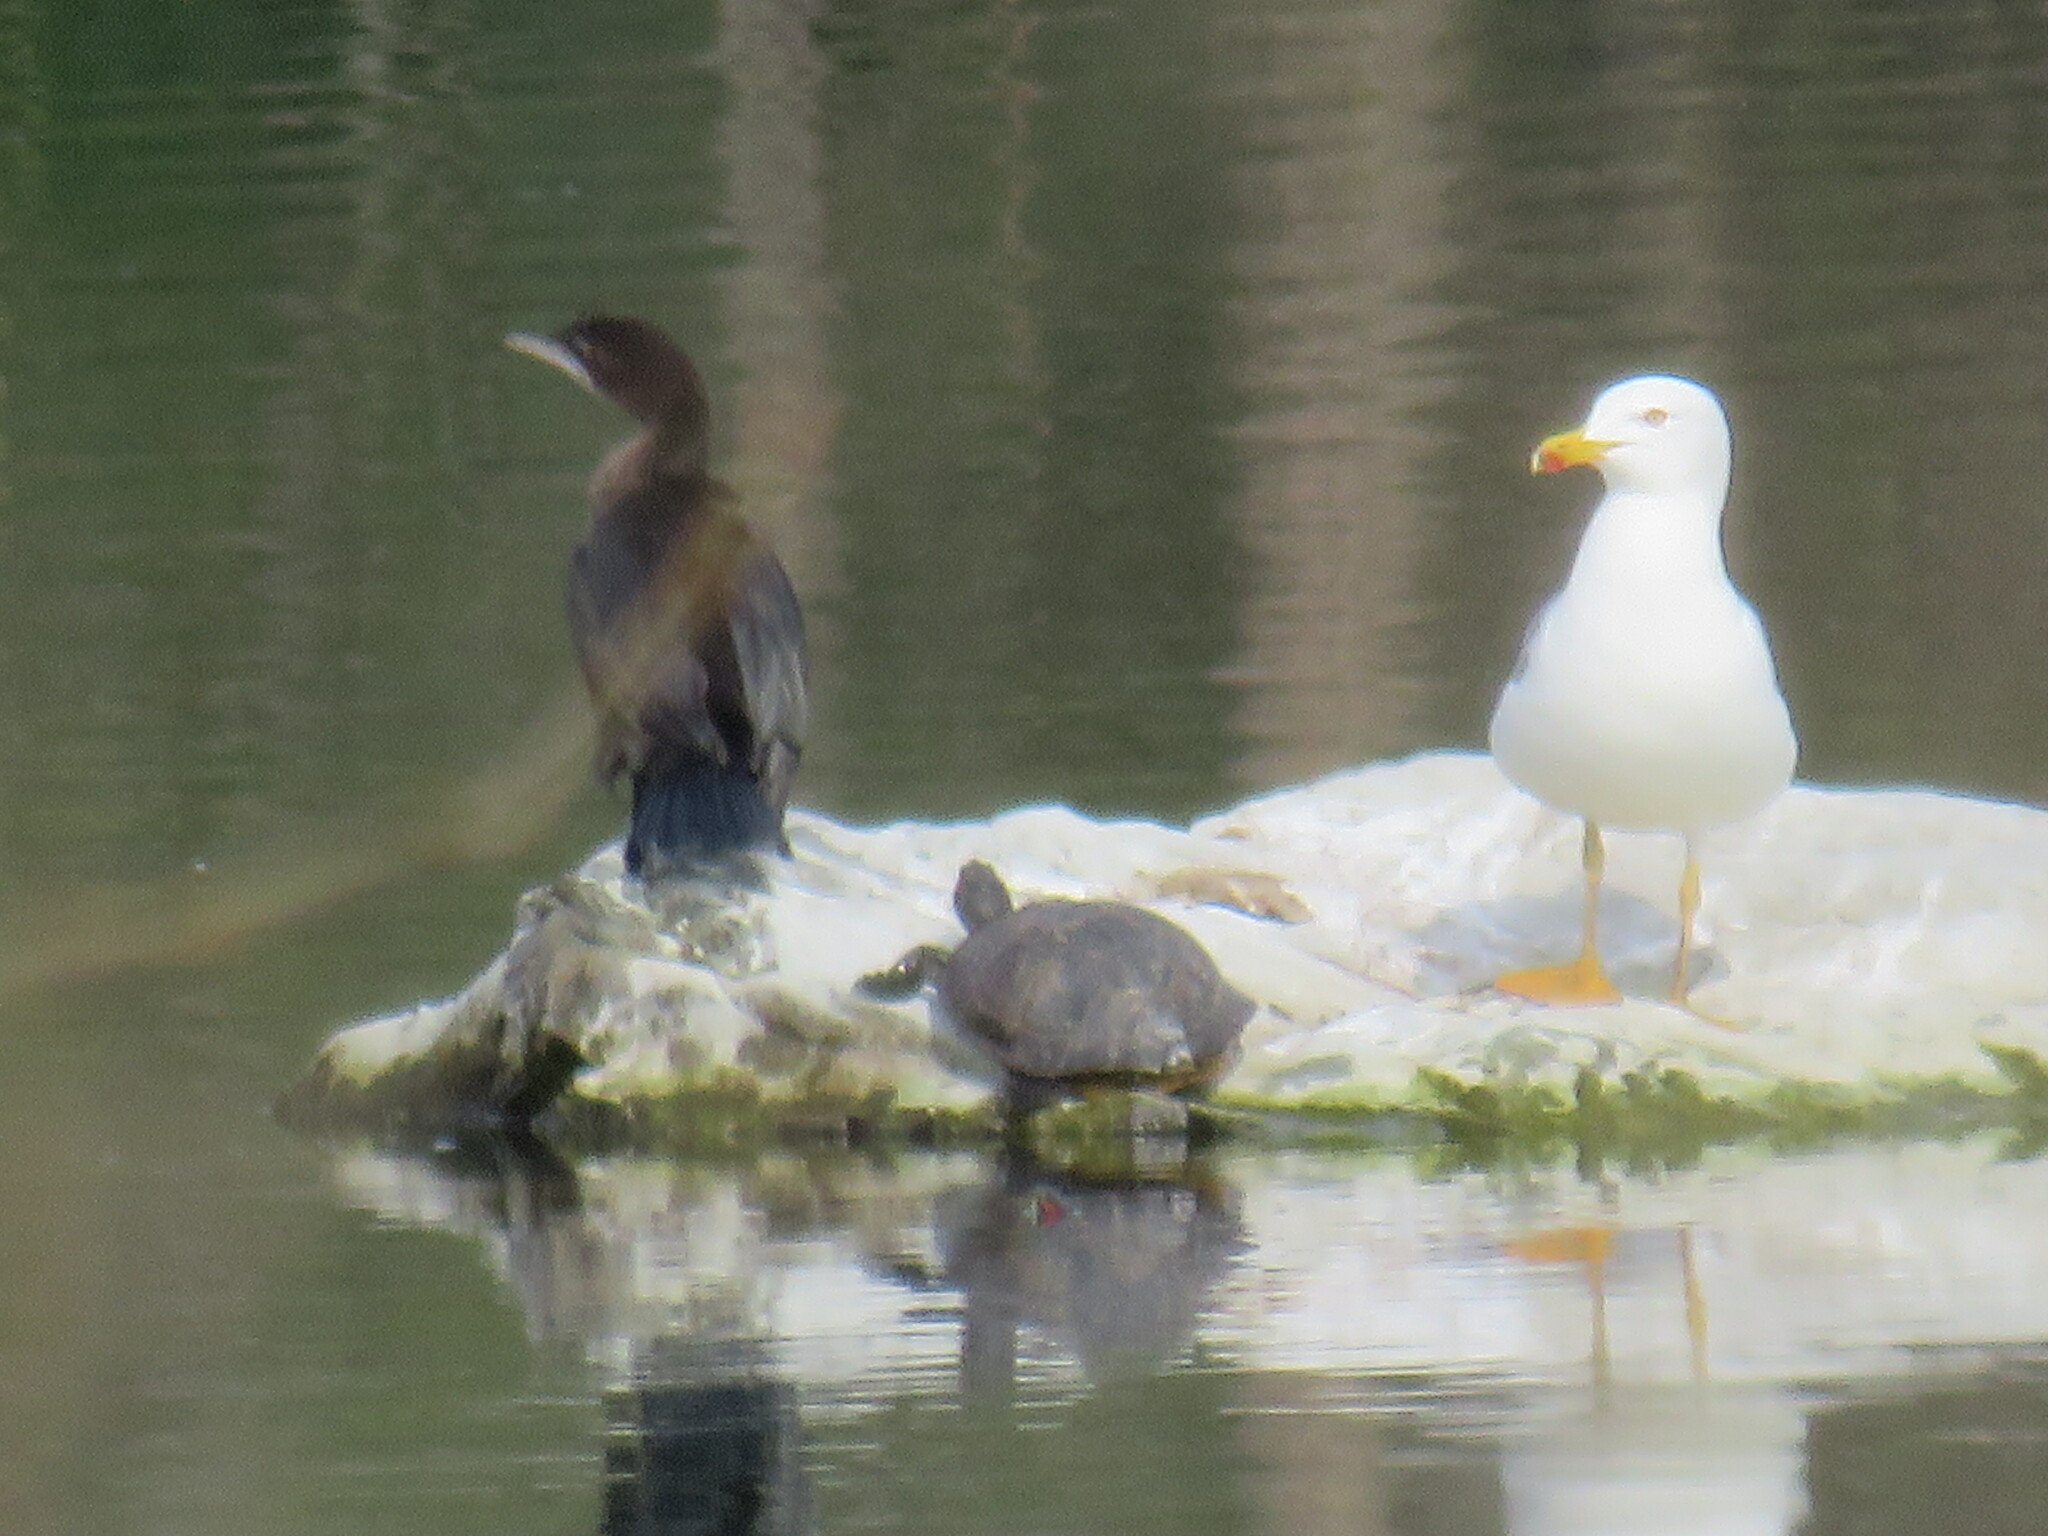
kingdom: Animalia
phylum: Chordata
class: Aves
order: Charadriiformes
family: Laridae
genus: Larus
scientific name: Larus michahellis
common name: Yellow-legged gull
